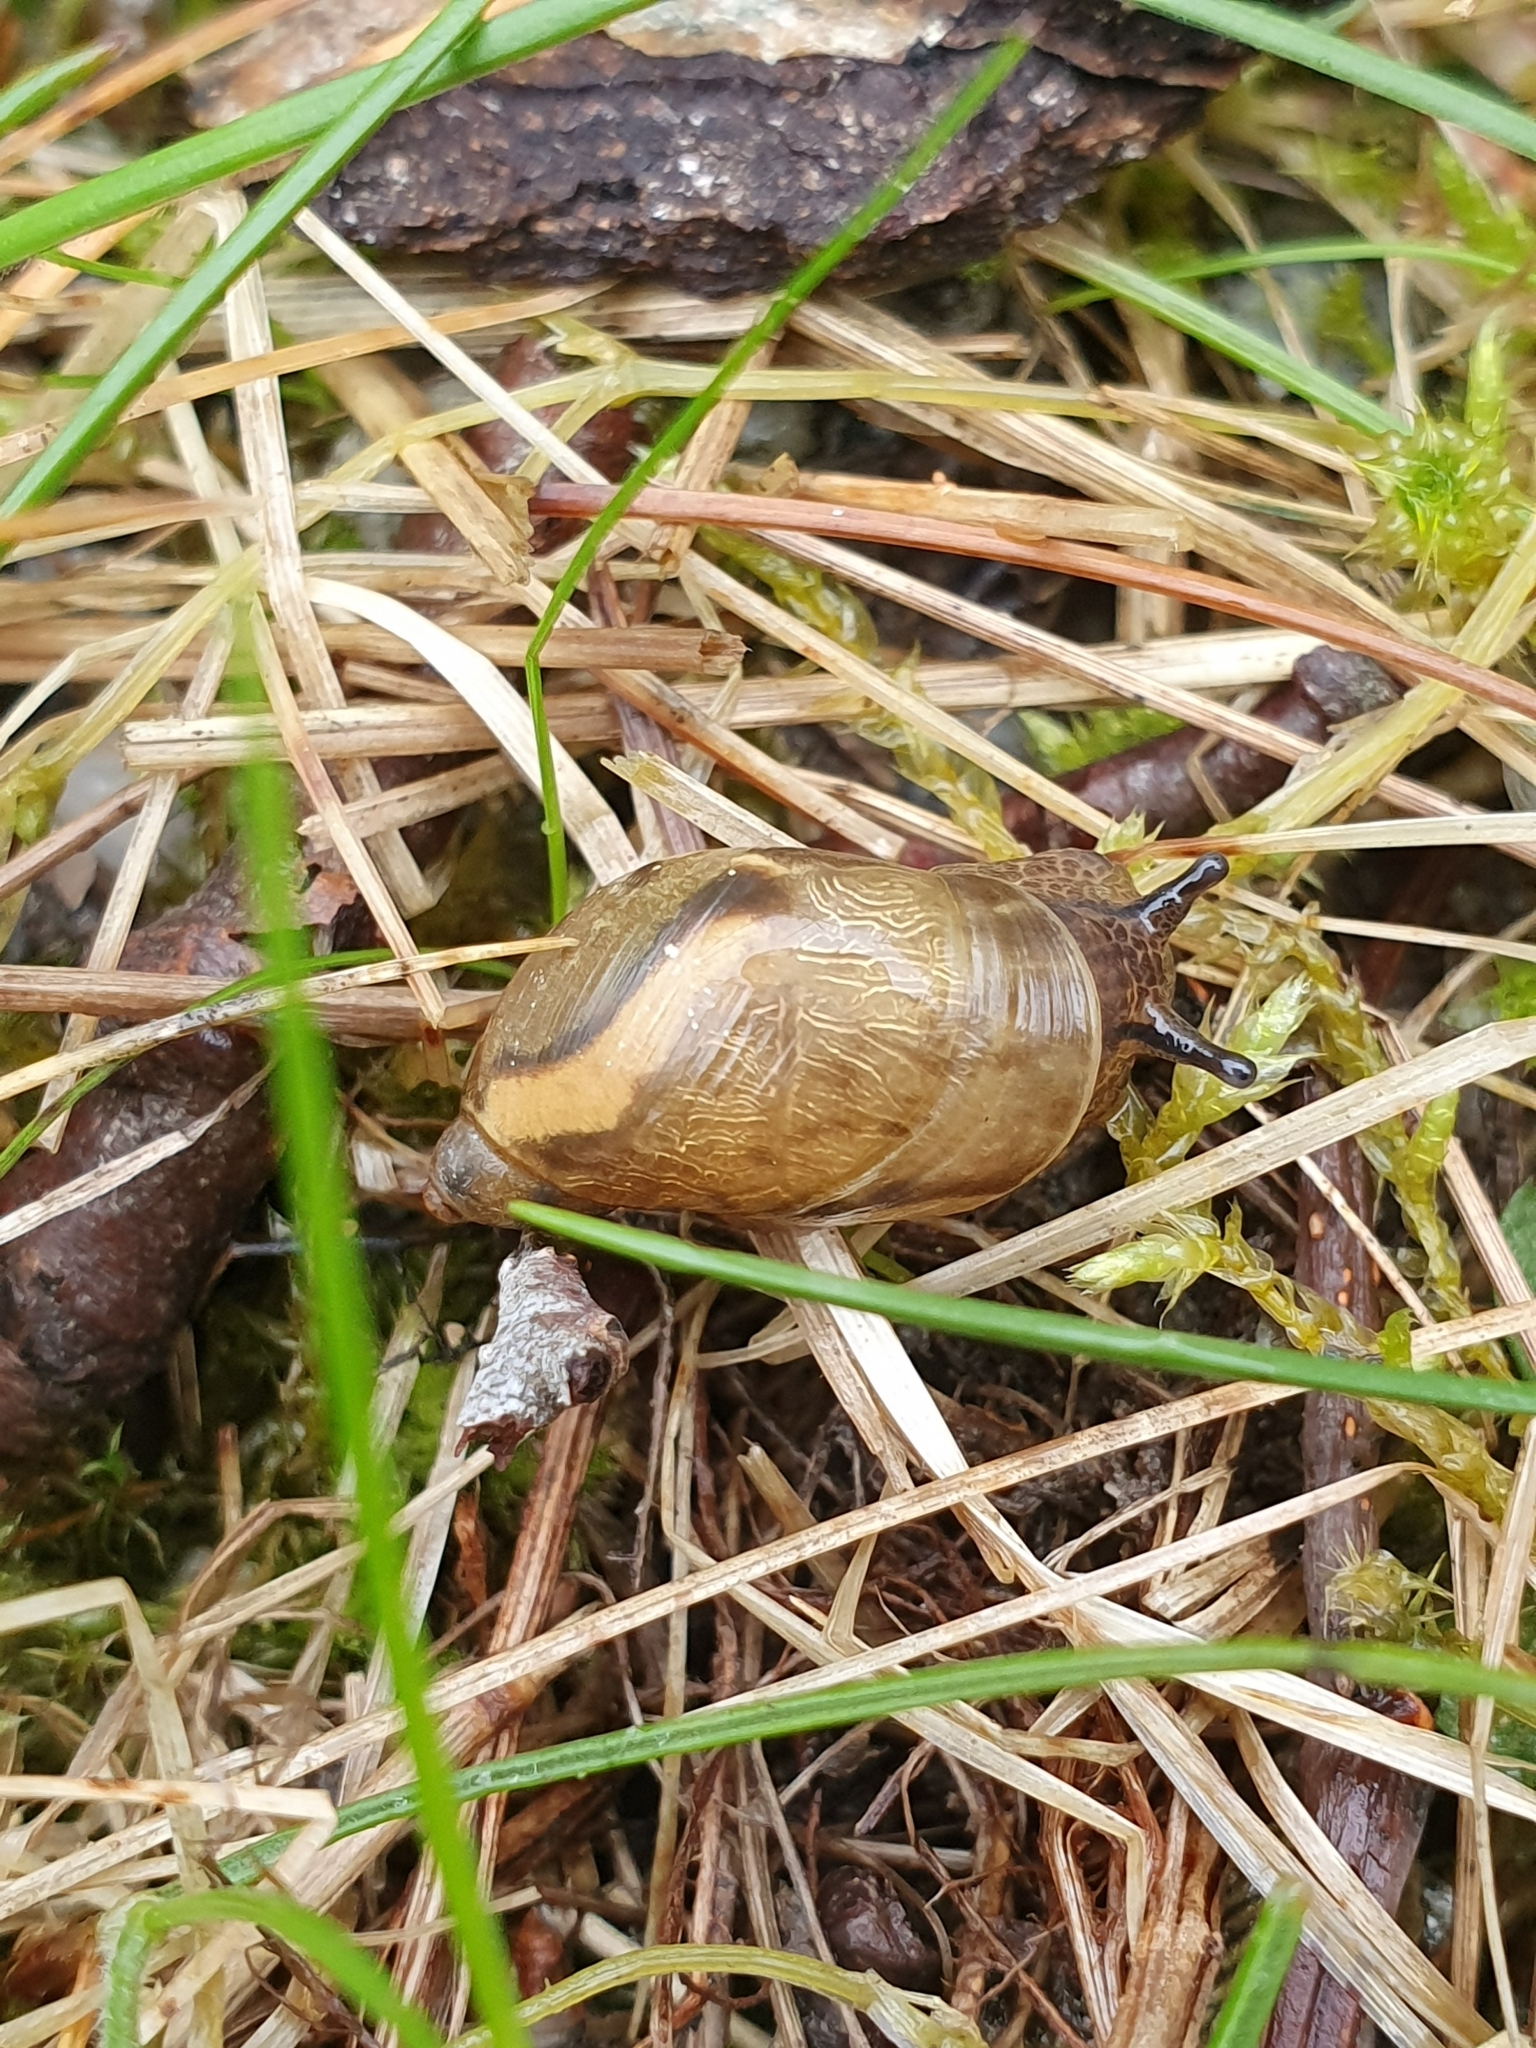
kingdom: Animalia
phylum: Mollusca
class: Gastropoda
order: Stylommatophora
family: Succineidae
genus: Succinea
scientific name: Succinea putris
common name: European ambersnail
